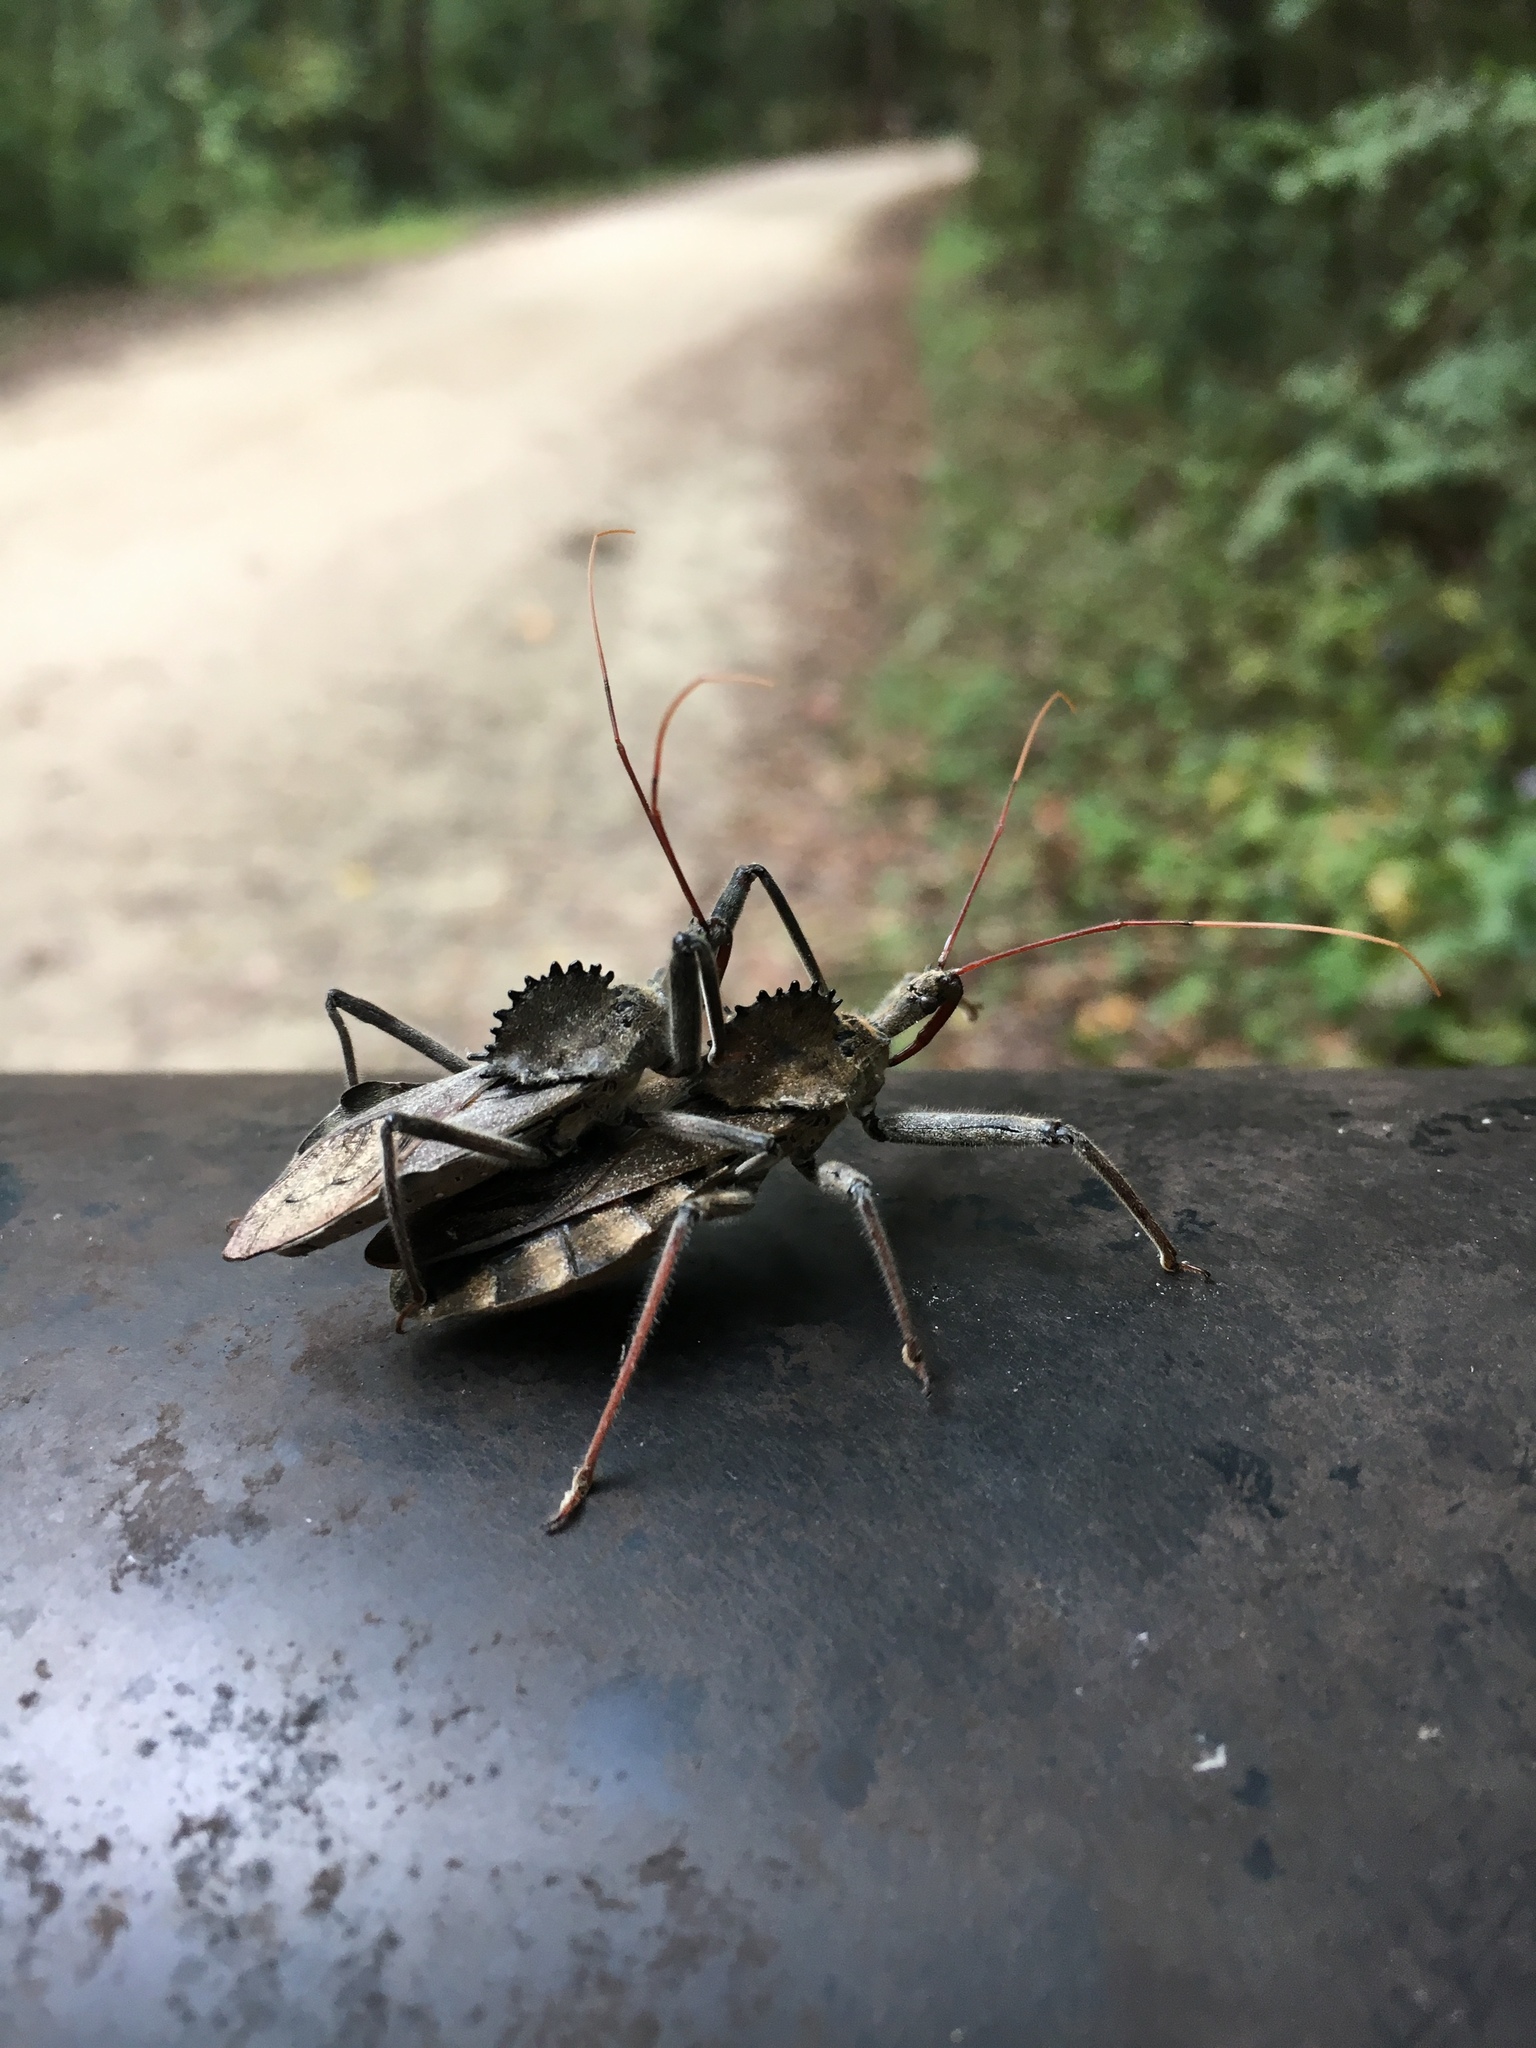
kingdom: Animalia
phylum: Arthropoda
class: Insecta
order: Hemiptera
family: Reduviidae
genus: Arilus
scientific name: Arilus cristatus
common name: North american wheel bug
